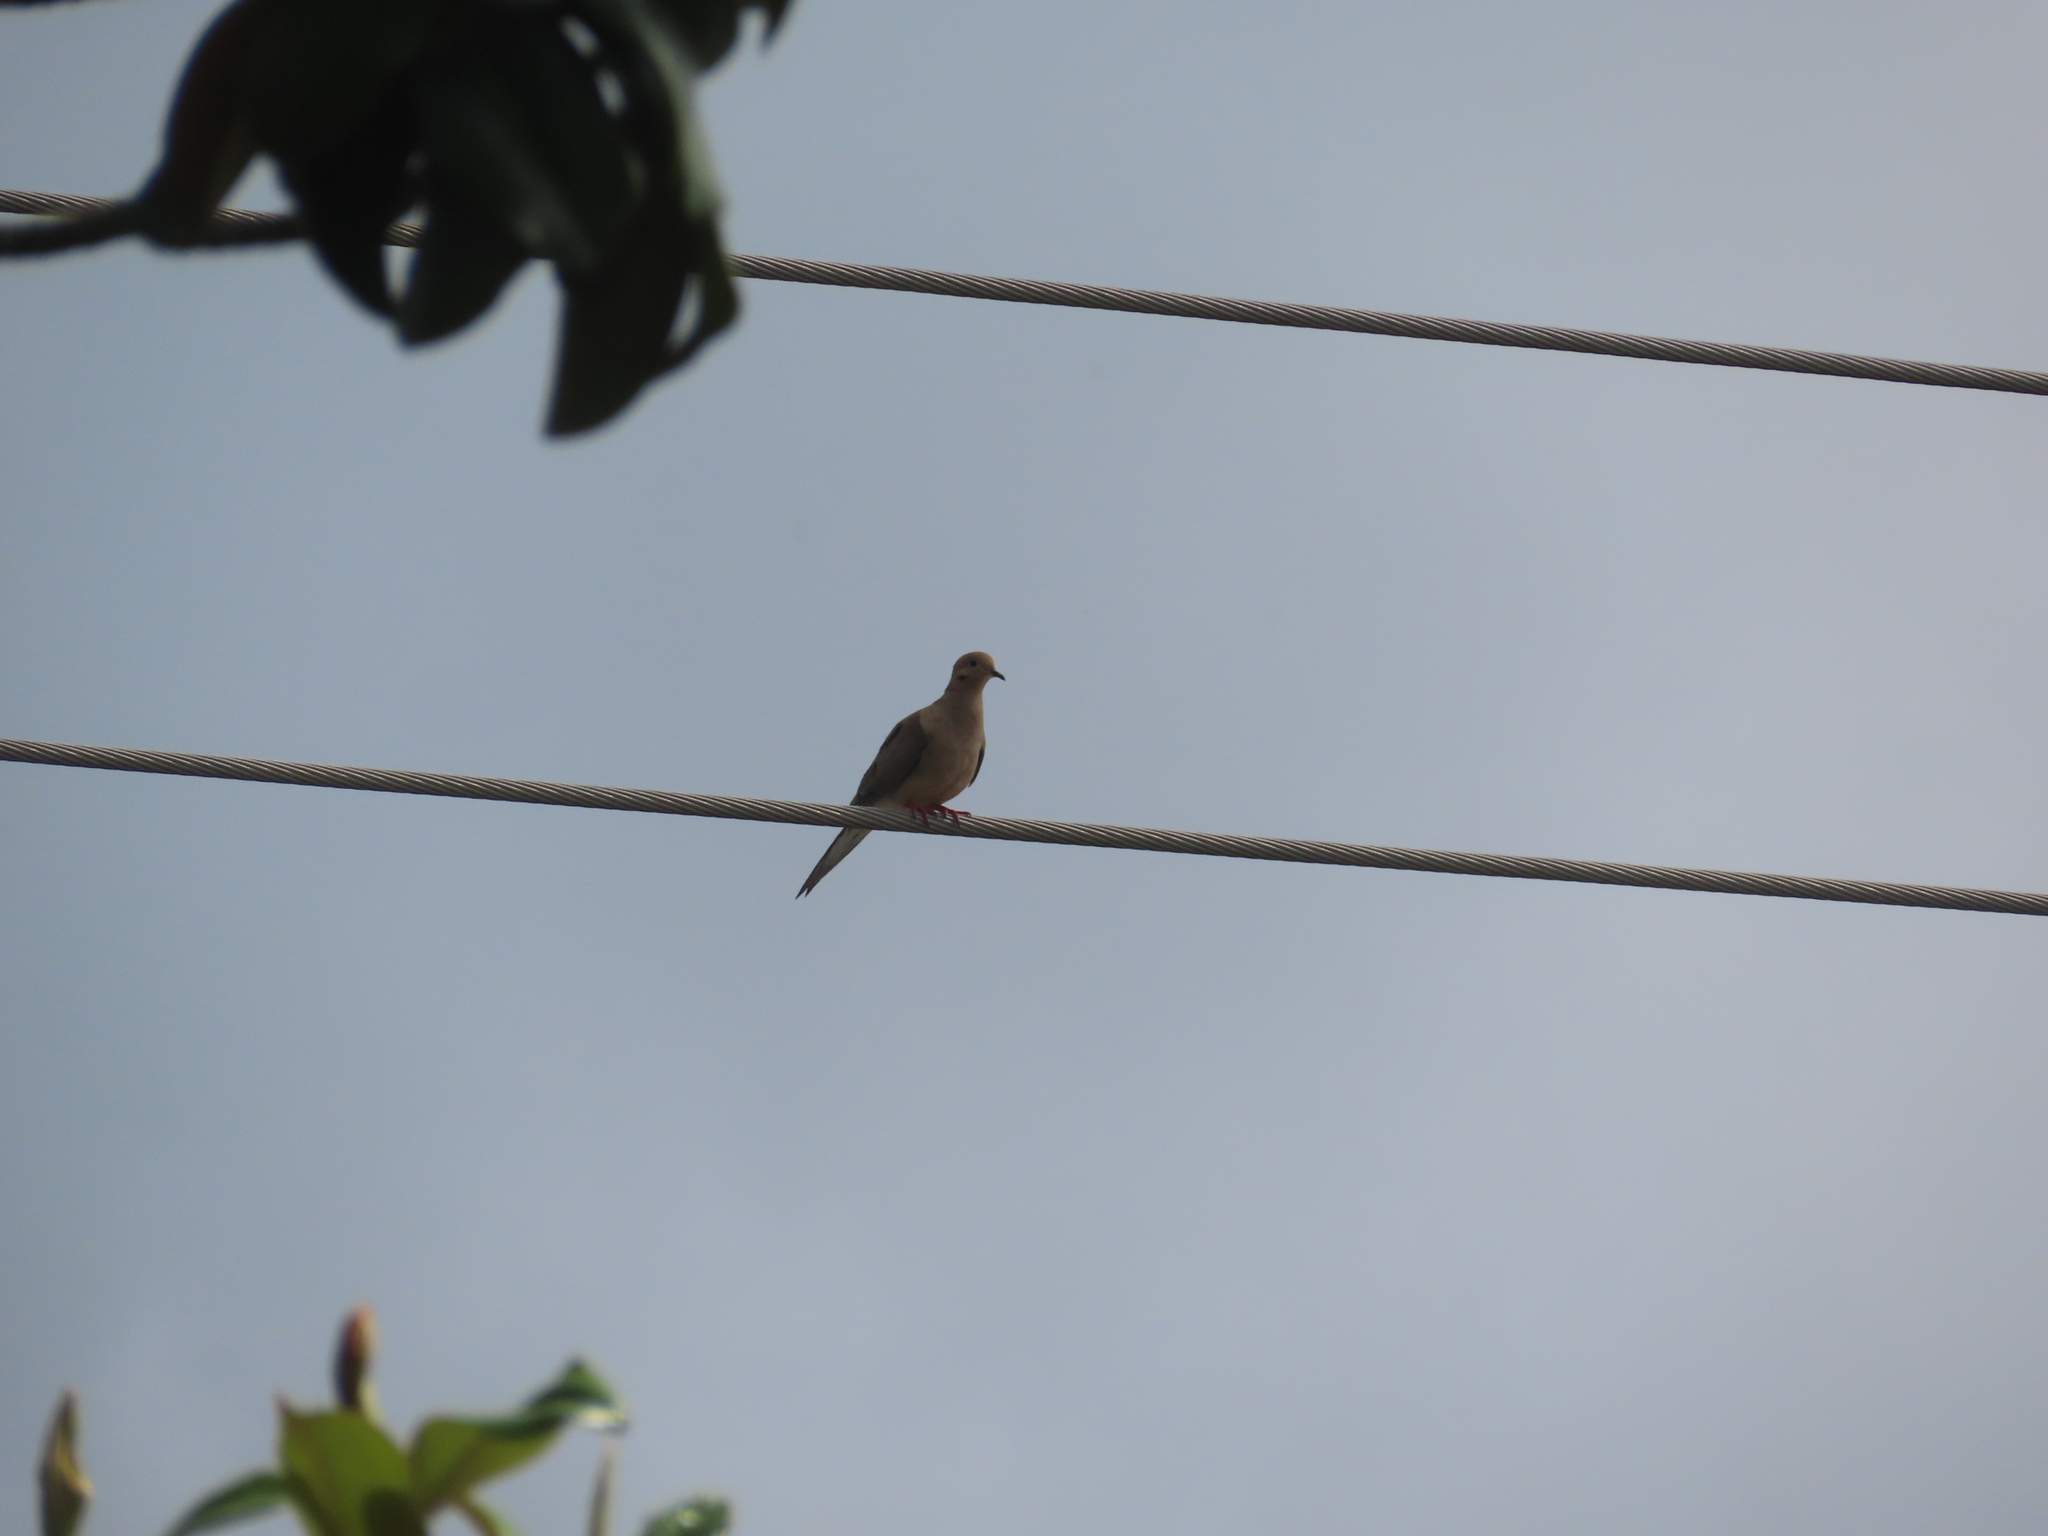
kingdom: Animalia
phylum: Chordata
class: Aves
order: Columbiformes
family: Columbidae
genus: Zenaida
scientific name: Zenaida macroura
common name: Mourning dove
